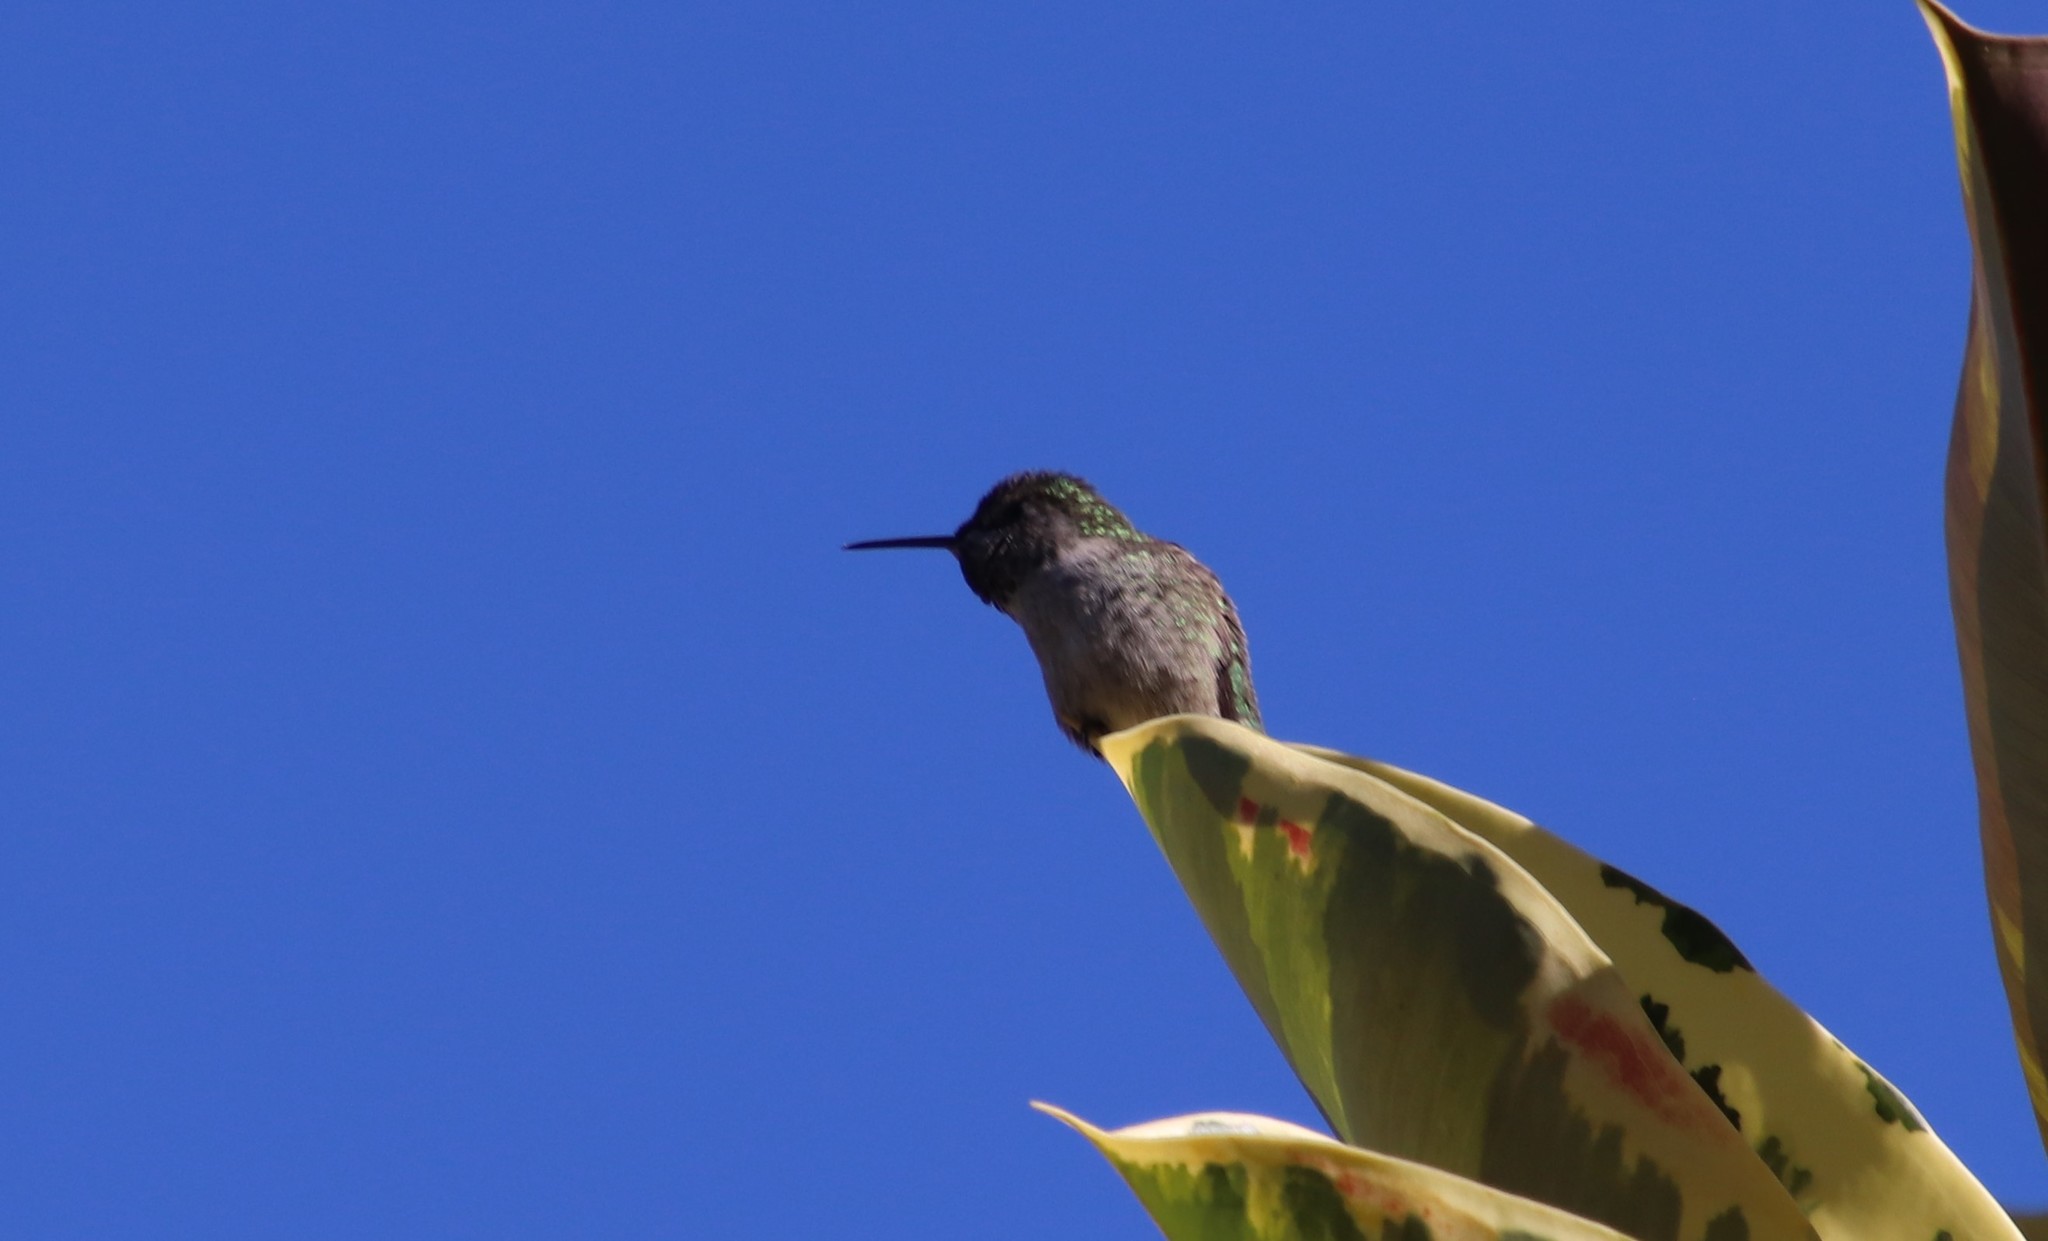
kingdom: Animalia
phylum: Chordata
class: Aves
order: Apodiformes
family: Trochilidae
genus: Calypte
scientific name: Calypte anna
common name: Anna's hummingbird
